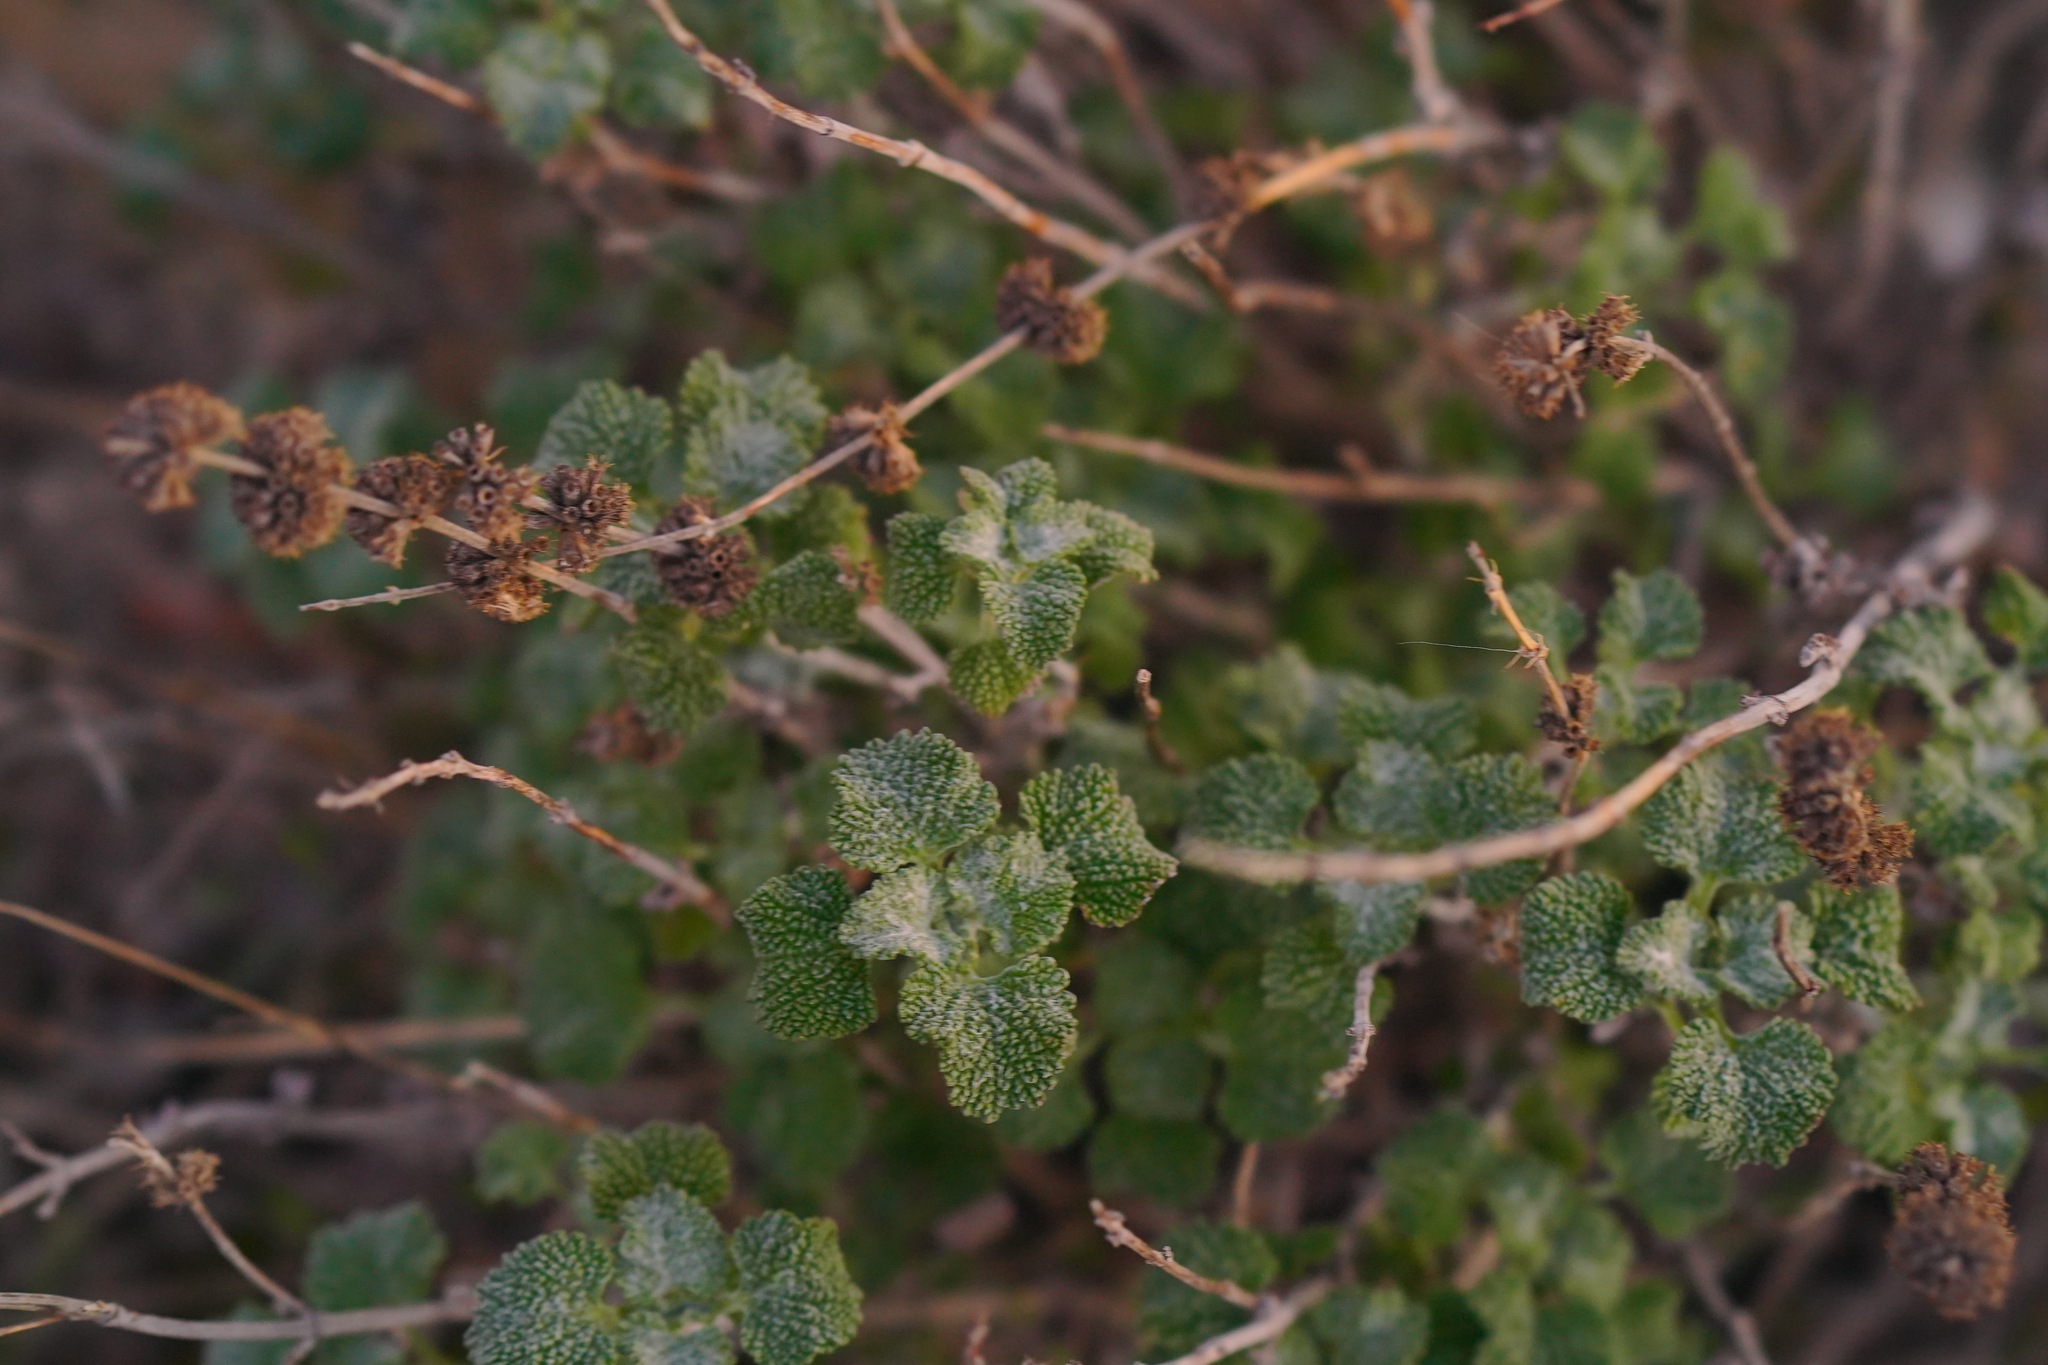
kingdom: Plantae
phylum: Tracheophyta
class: Magnoliopsida
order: Lamiales
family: Lamiaceae
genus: Marrubium
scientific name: Marrubium vulgare
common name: Horehound
